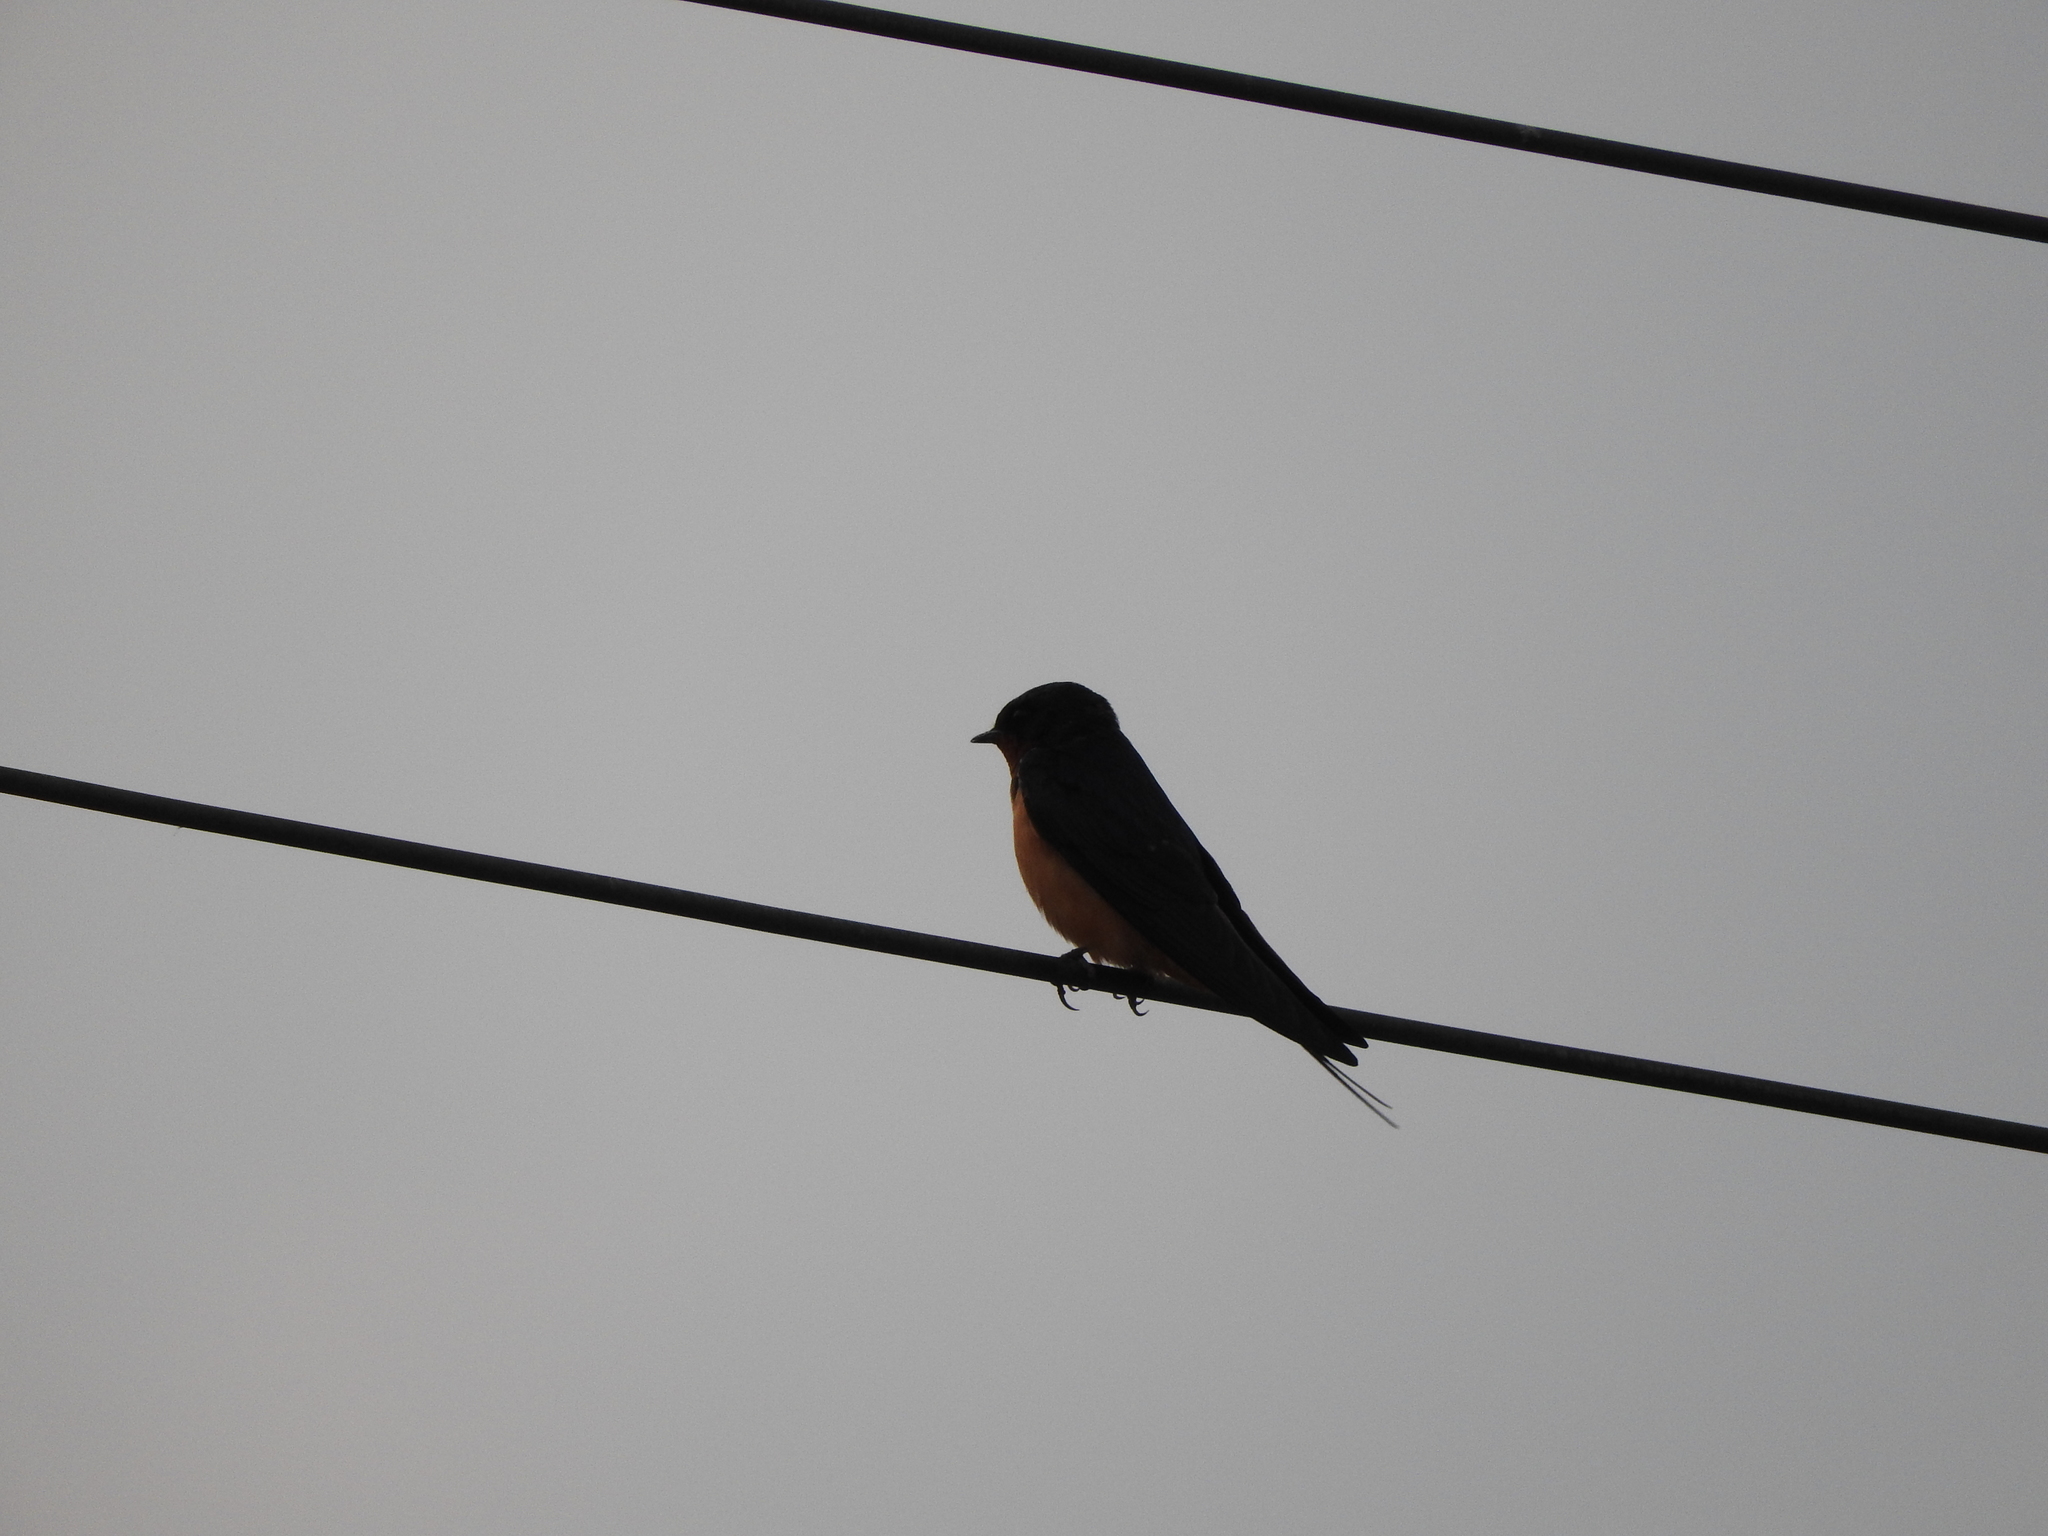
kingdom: Animalia
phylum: Chordata
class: Aves
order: Passeriformes
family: Hirundinidae
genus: Hirundo
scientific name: Hirundo rustica
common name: Barn swallow
